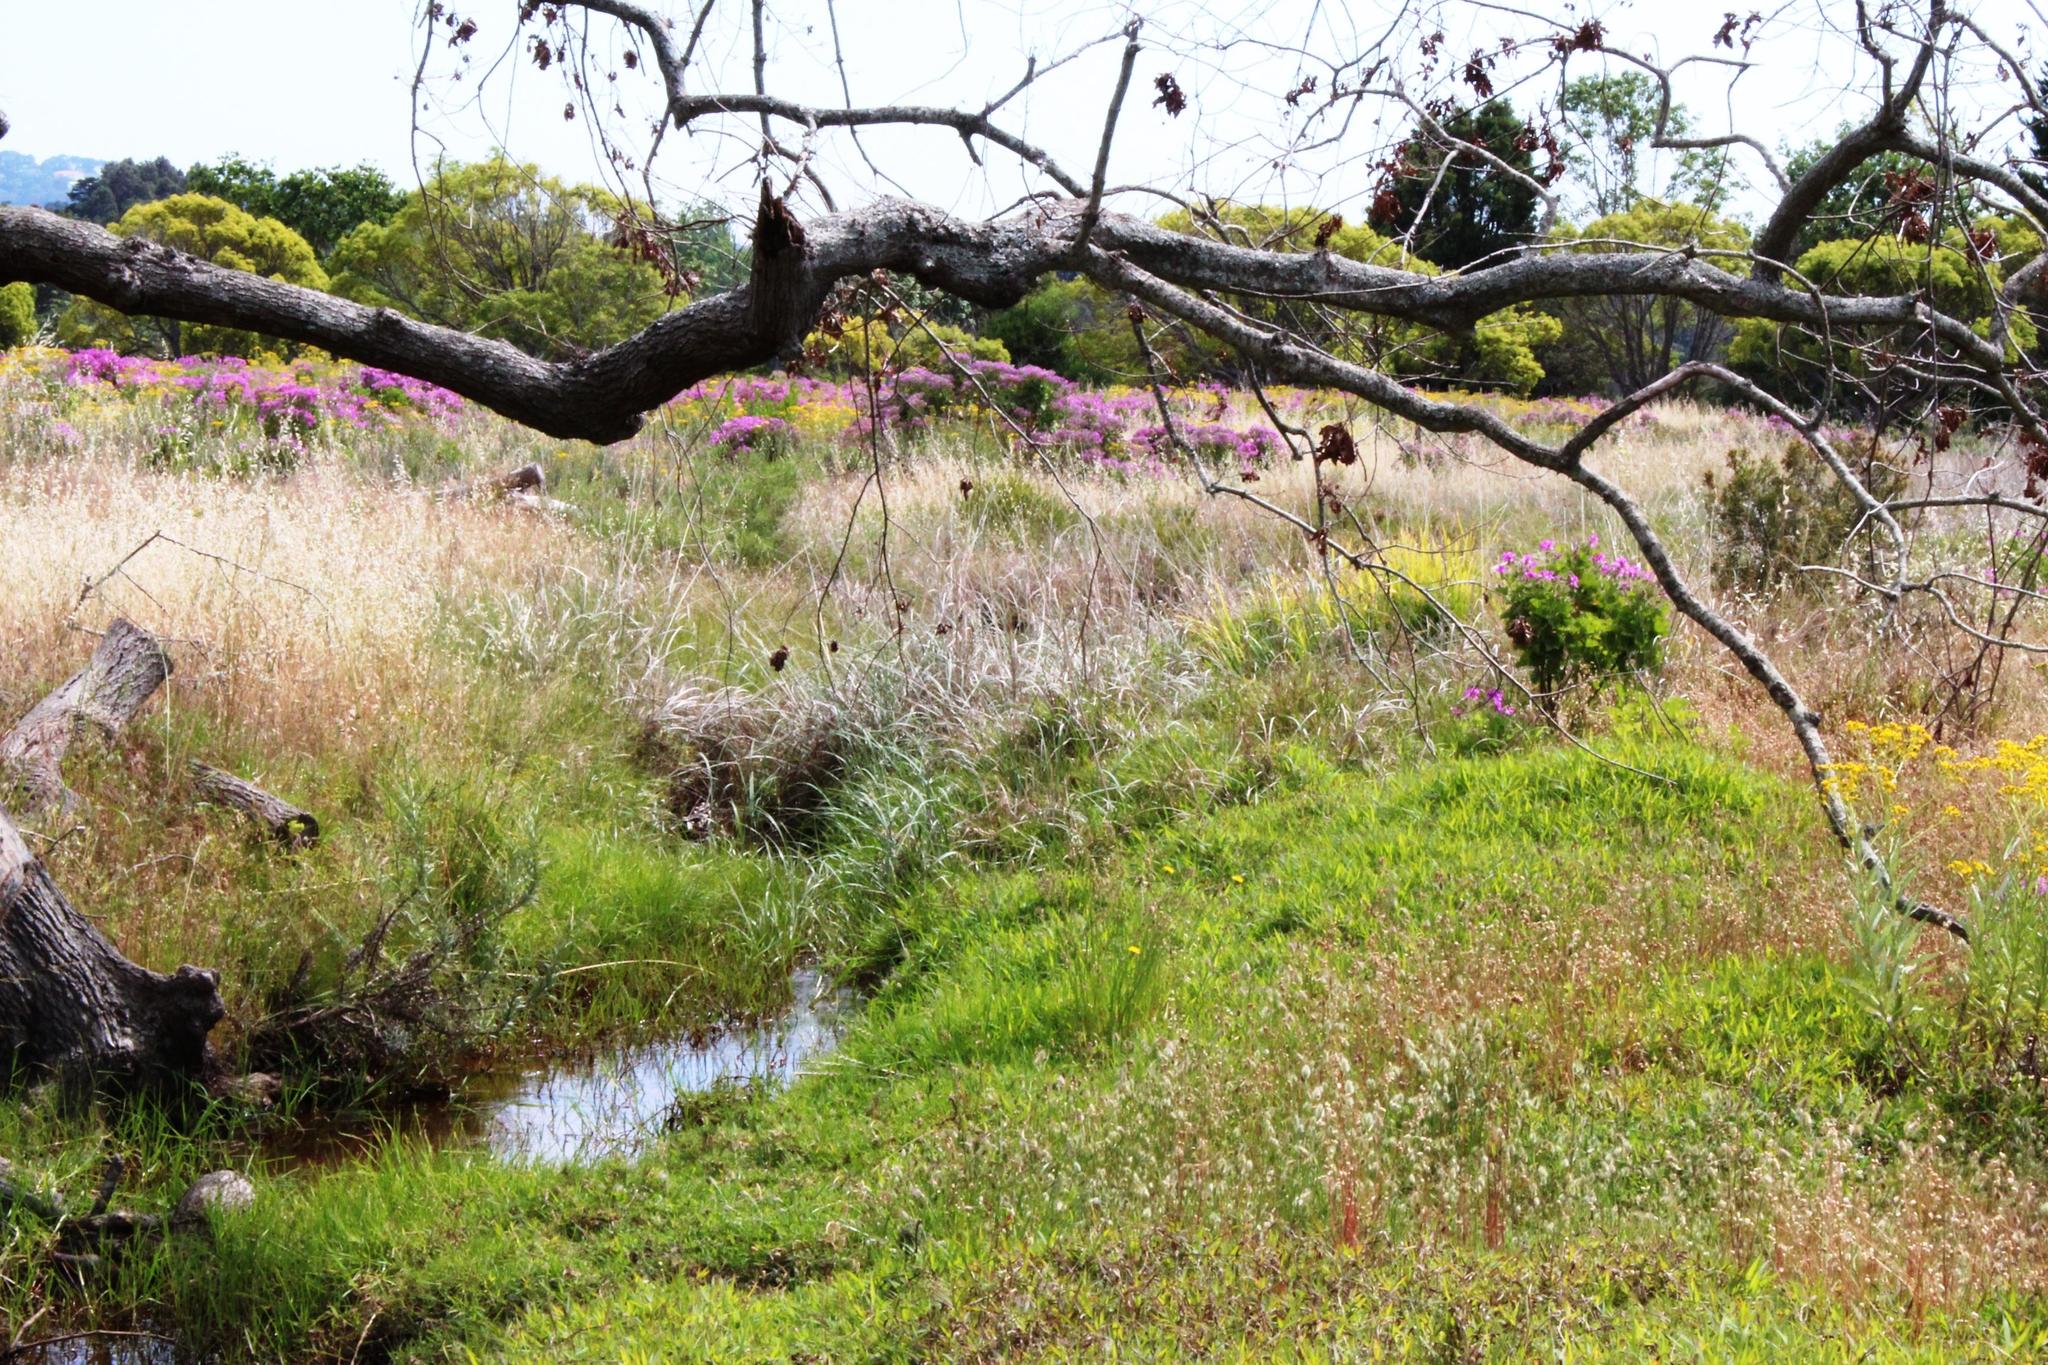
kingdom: Plantae
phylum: Tracheophyta
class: Liliopsida
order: Poales
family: Poaceae
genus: Cenchrus
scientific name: Cenchrus caudatus
